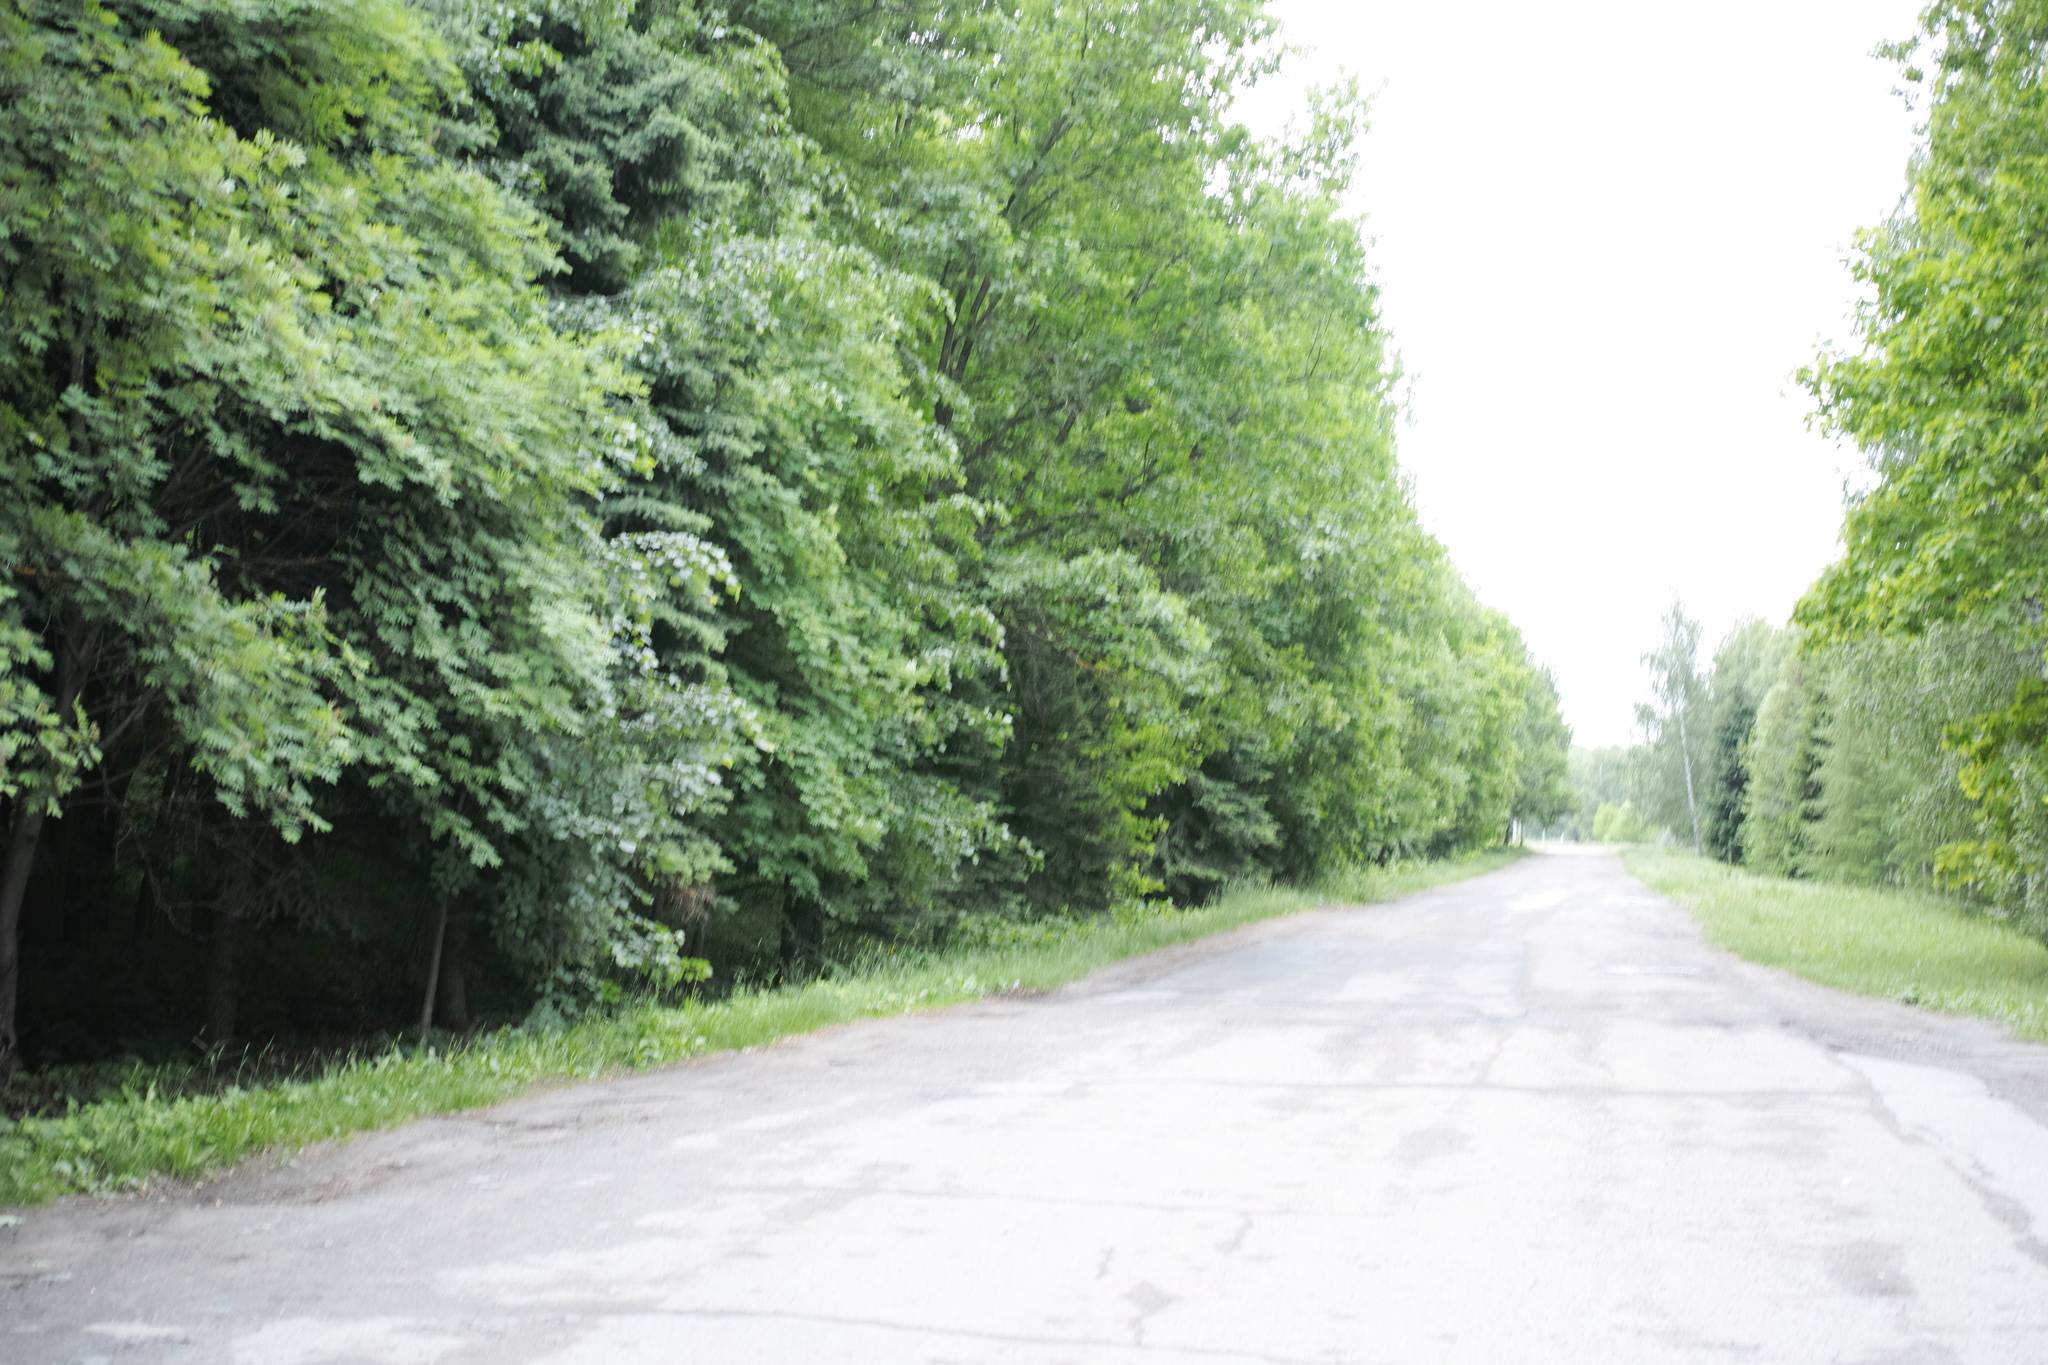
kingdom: Plantae
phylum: Tracheophyta
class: Magnoliopsida
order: Fagales
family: Fagaceae
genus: Quercus
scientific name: Quercus robur
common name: Pedunculate oak
